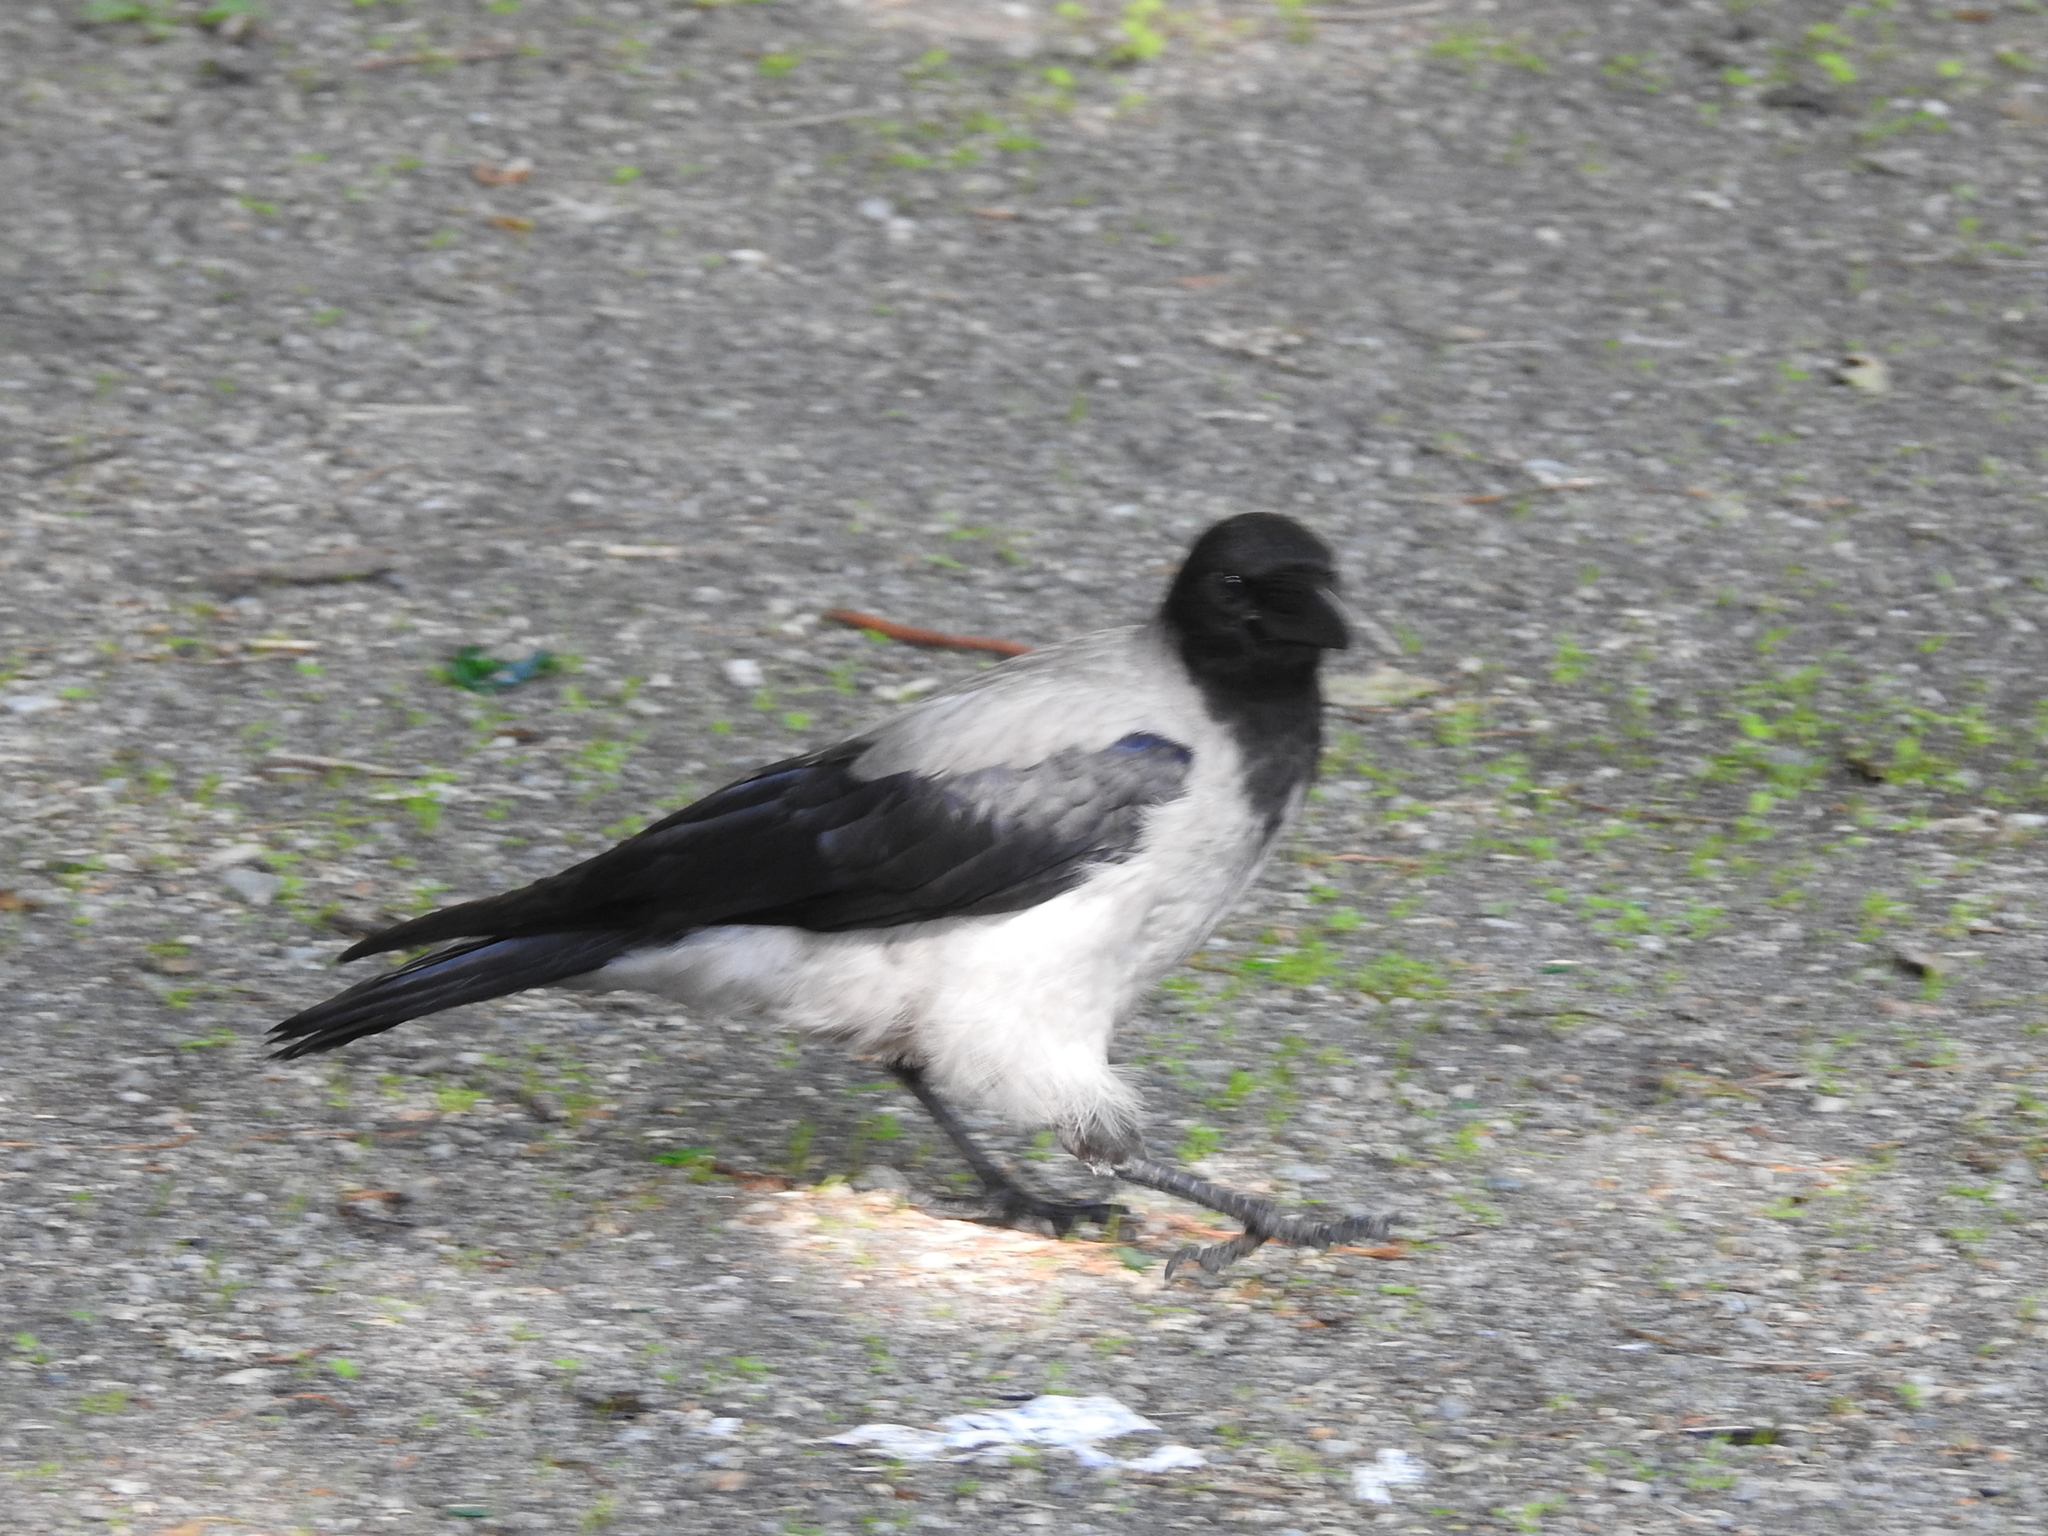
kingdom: Animalia
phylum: Chordata
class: Aves
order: Passeriformes
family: Corvidae
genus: Corvus
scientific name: Corvus cornix
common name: Hooded crow
